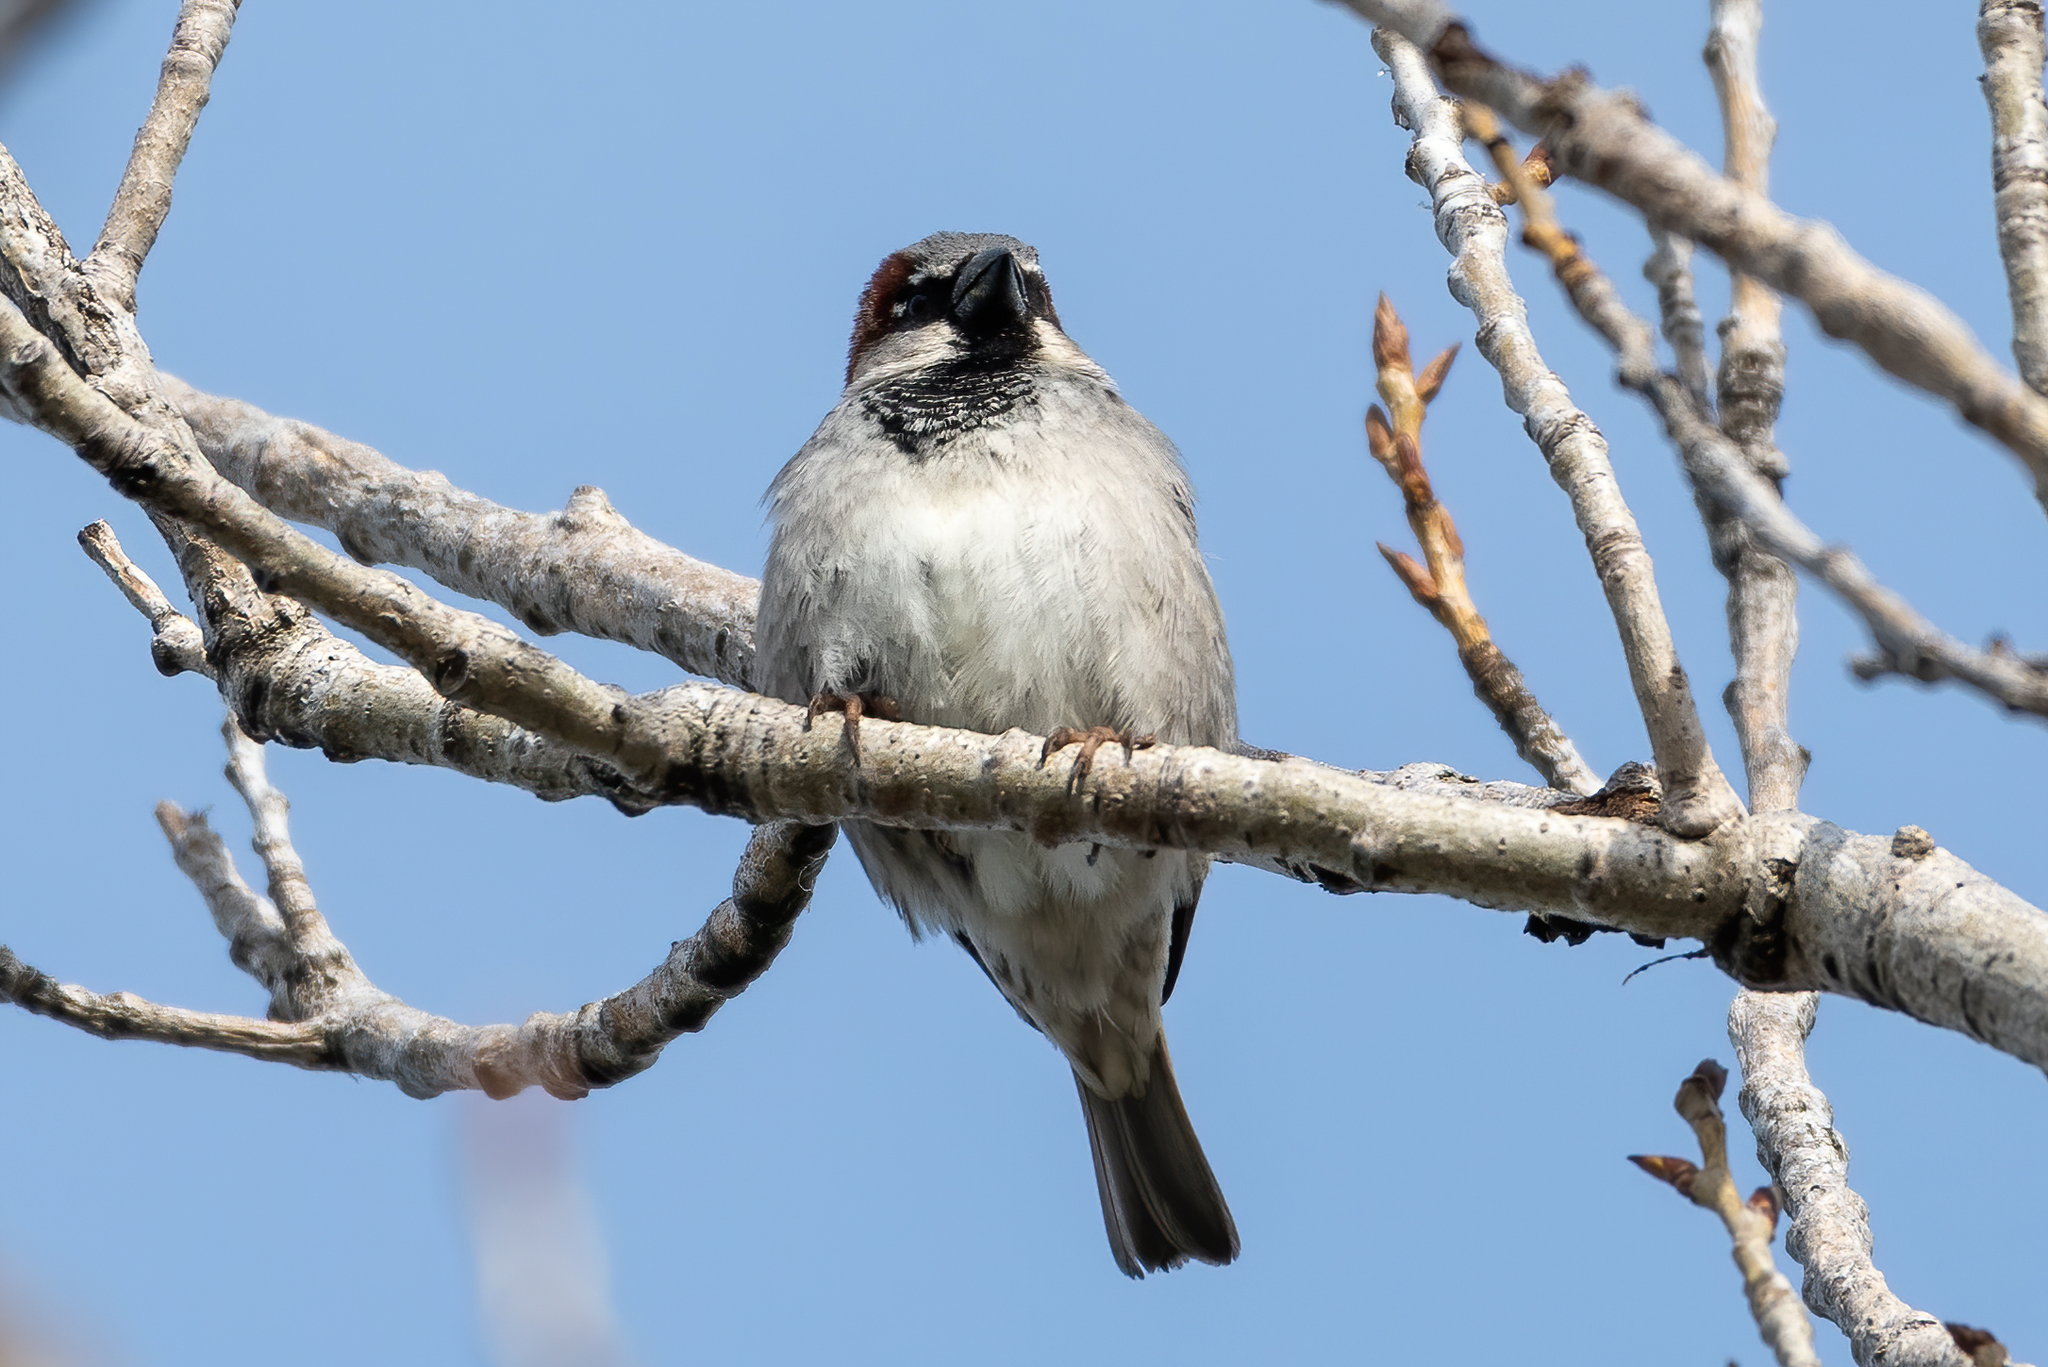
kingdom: Animalia
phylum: Chordata
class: Aves
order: Passeriformes
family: Passeridae
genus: Passer
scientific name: Passer domesticus
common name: House sparrow
